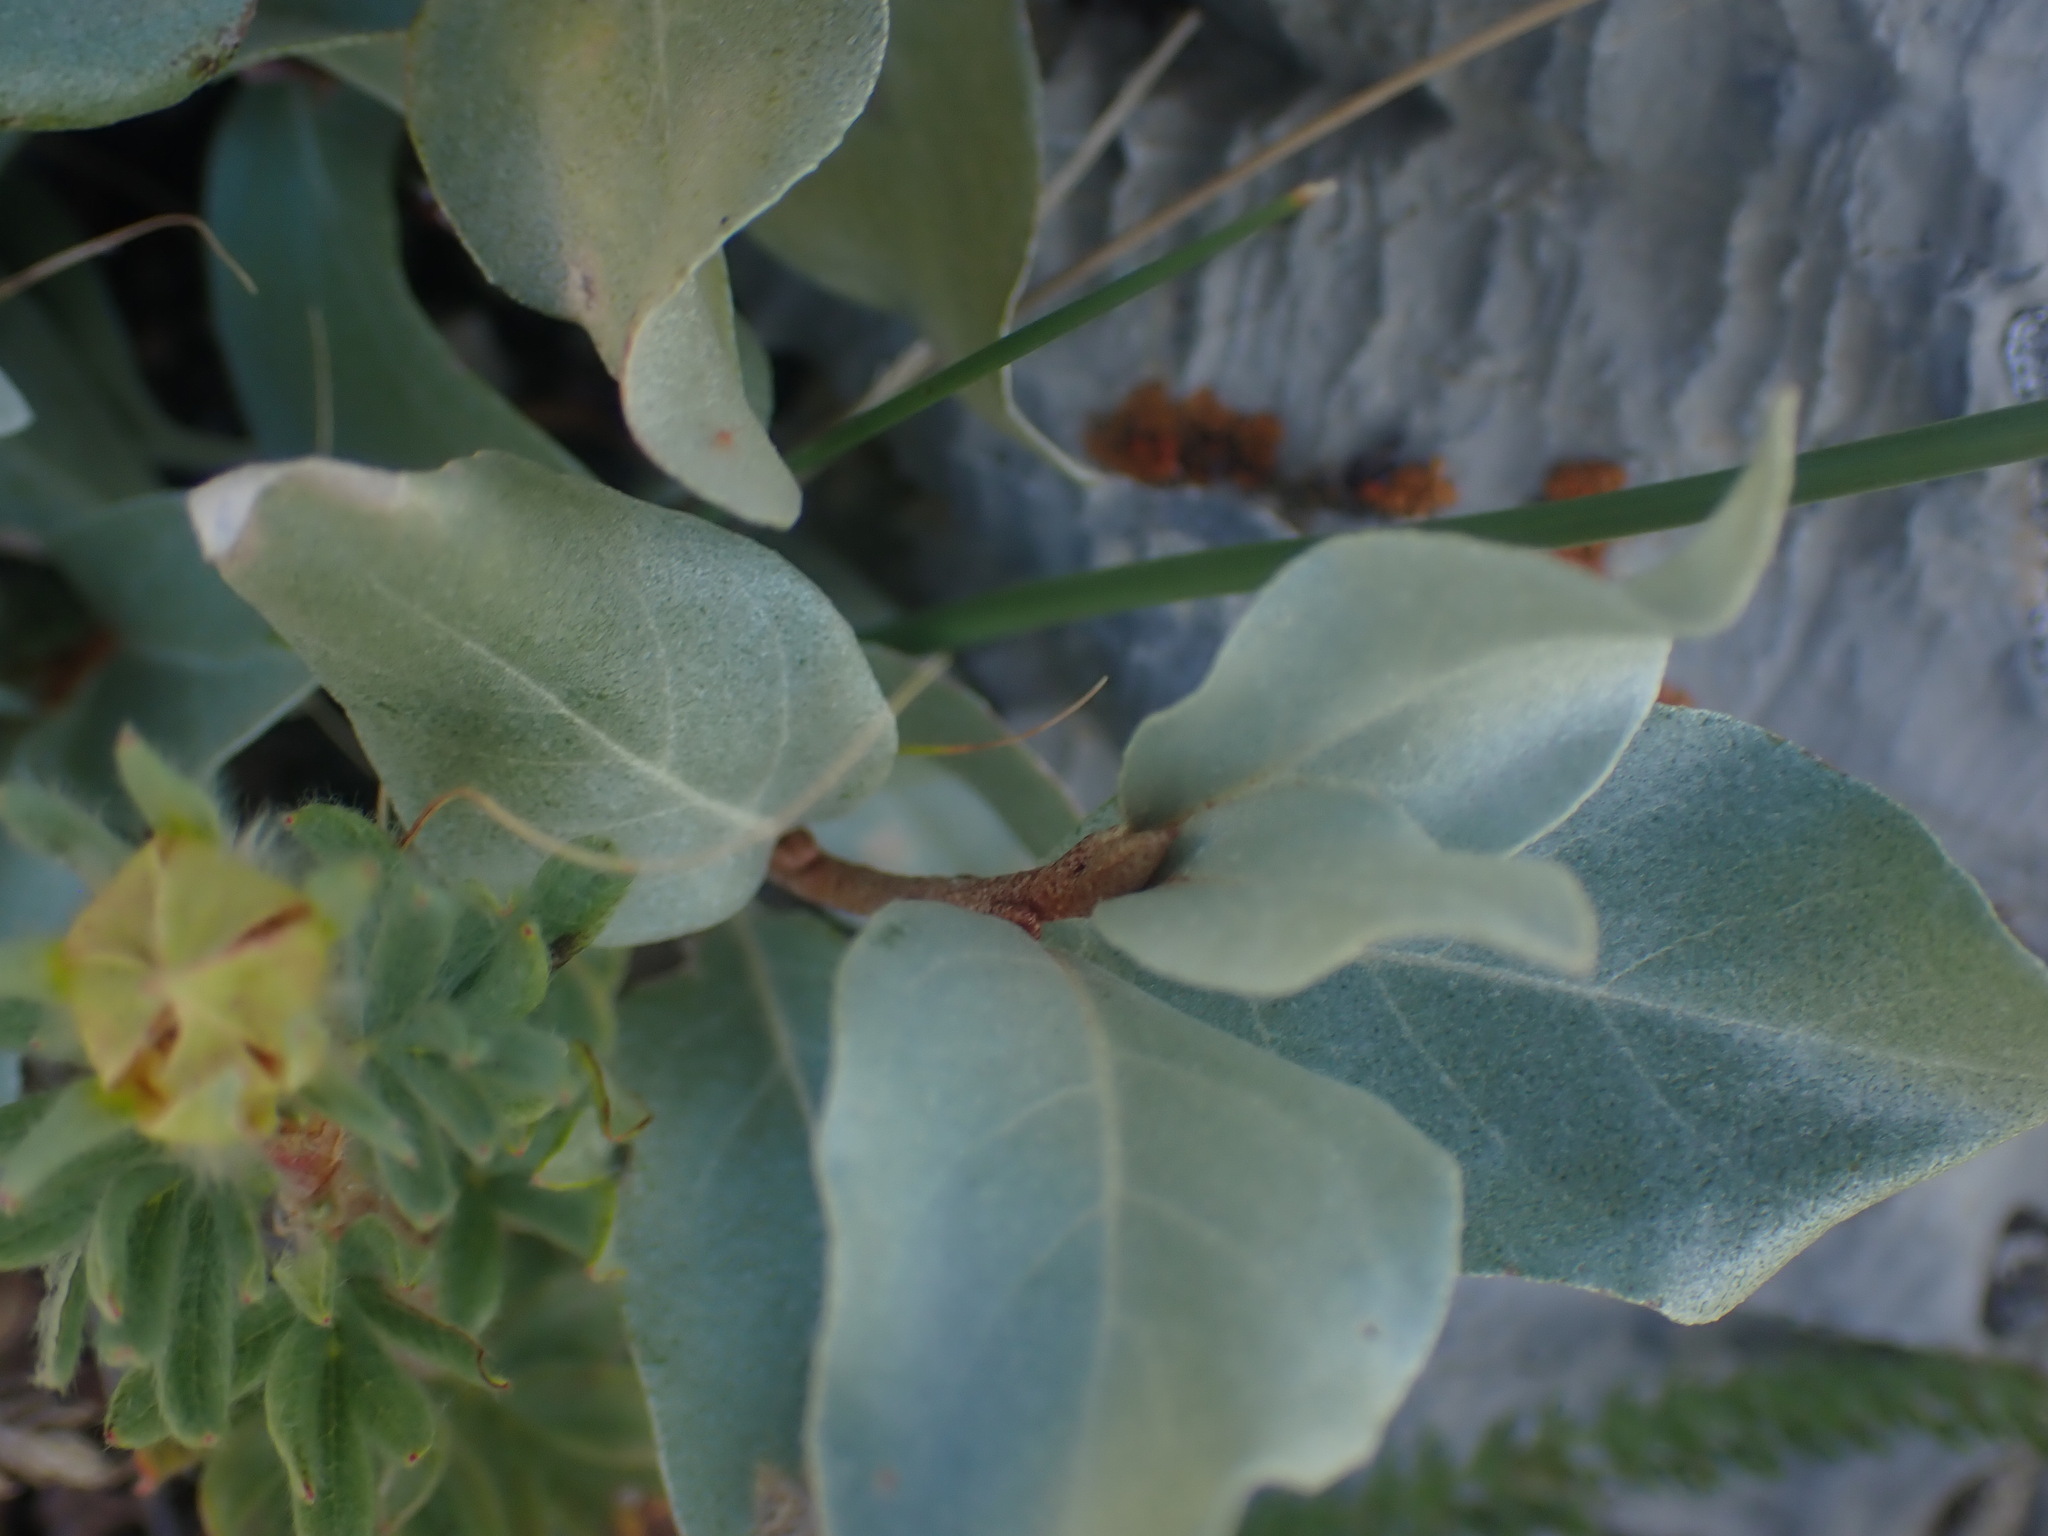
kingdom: Plantae
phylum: Tracheophyta
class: Magnoliopsida
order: Rosales
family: Elaeagnaceae
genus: Elaeagnus
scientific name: Elaeagnus commutata
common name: Silverberry
